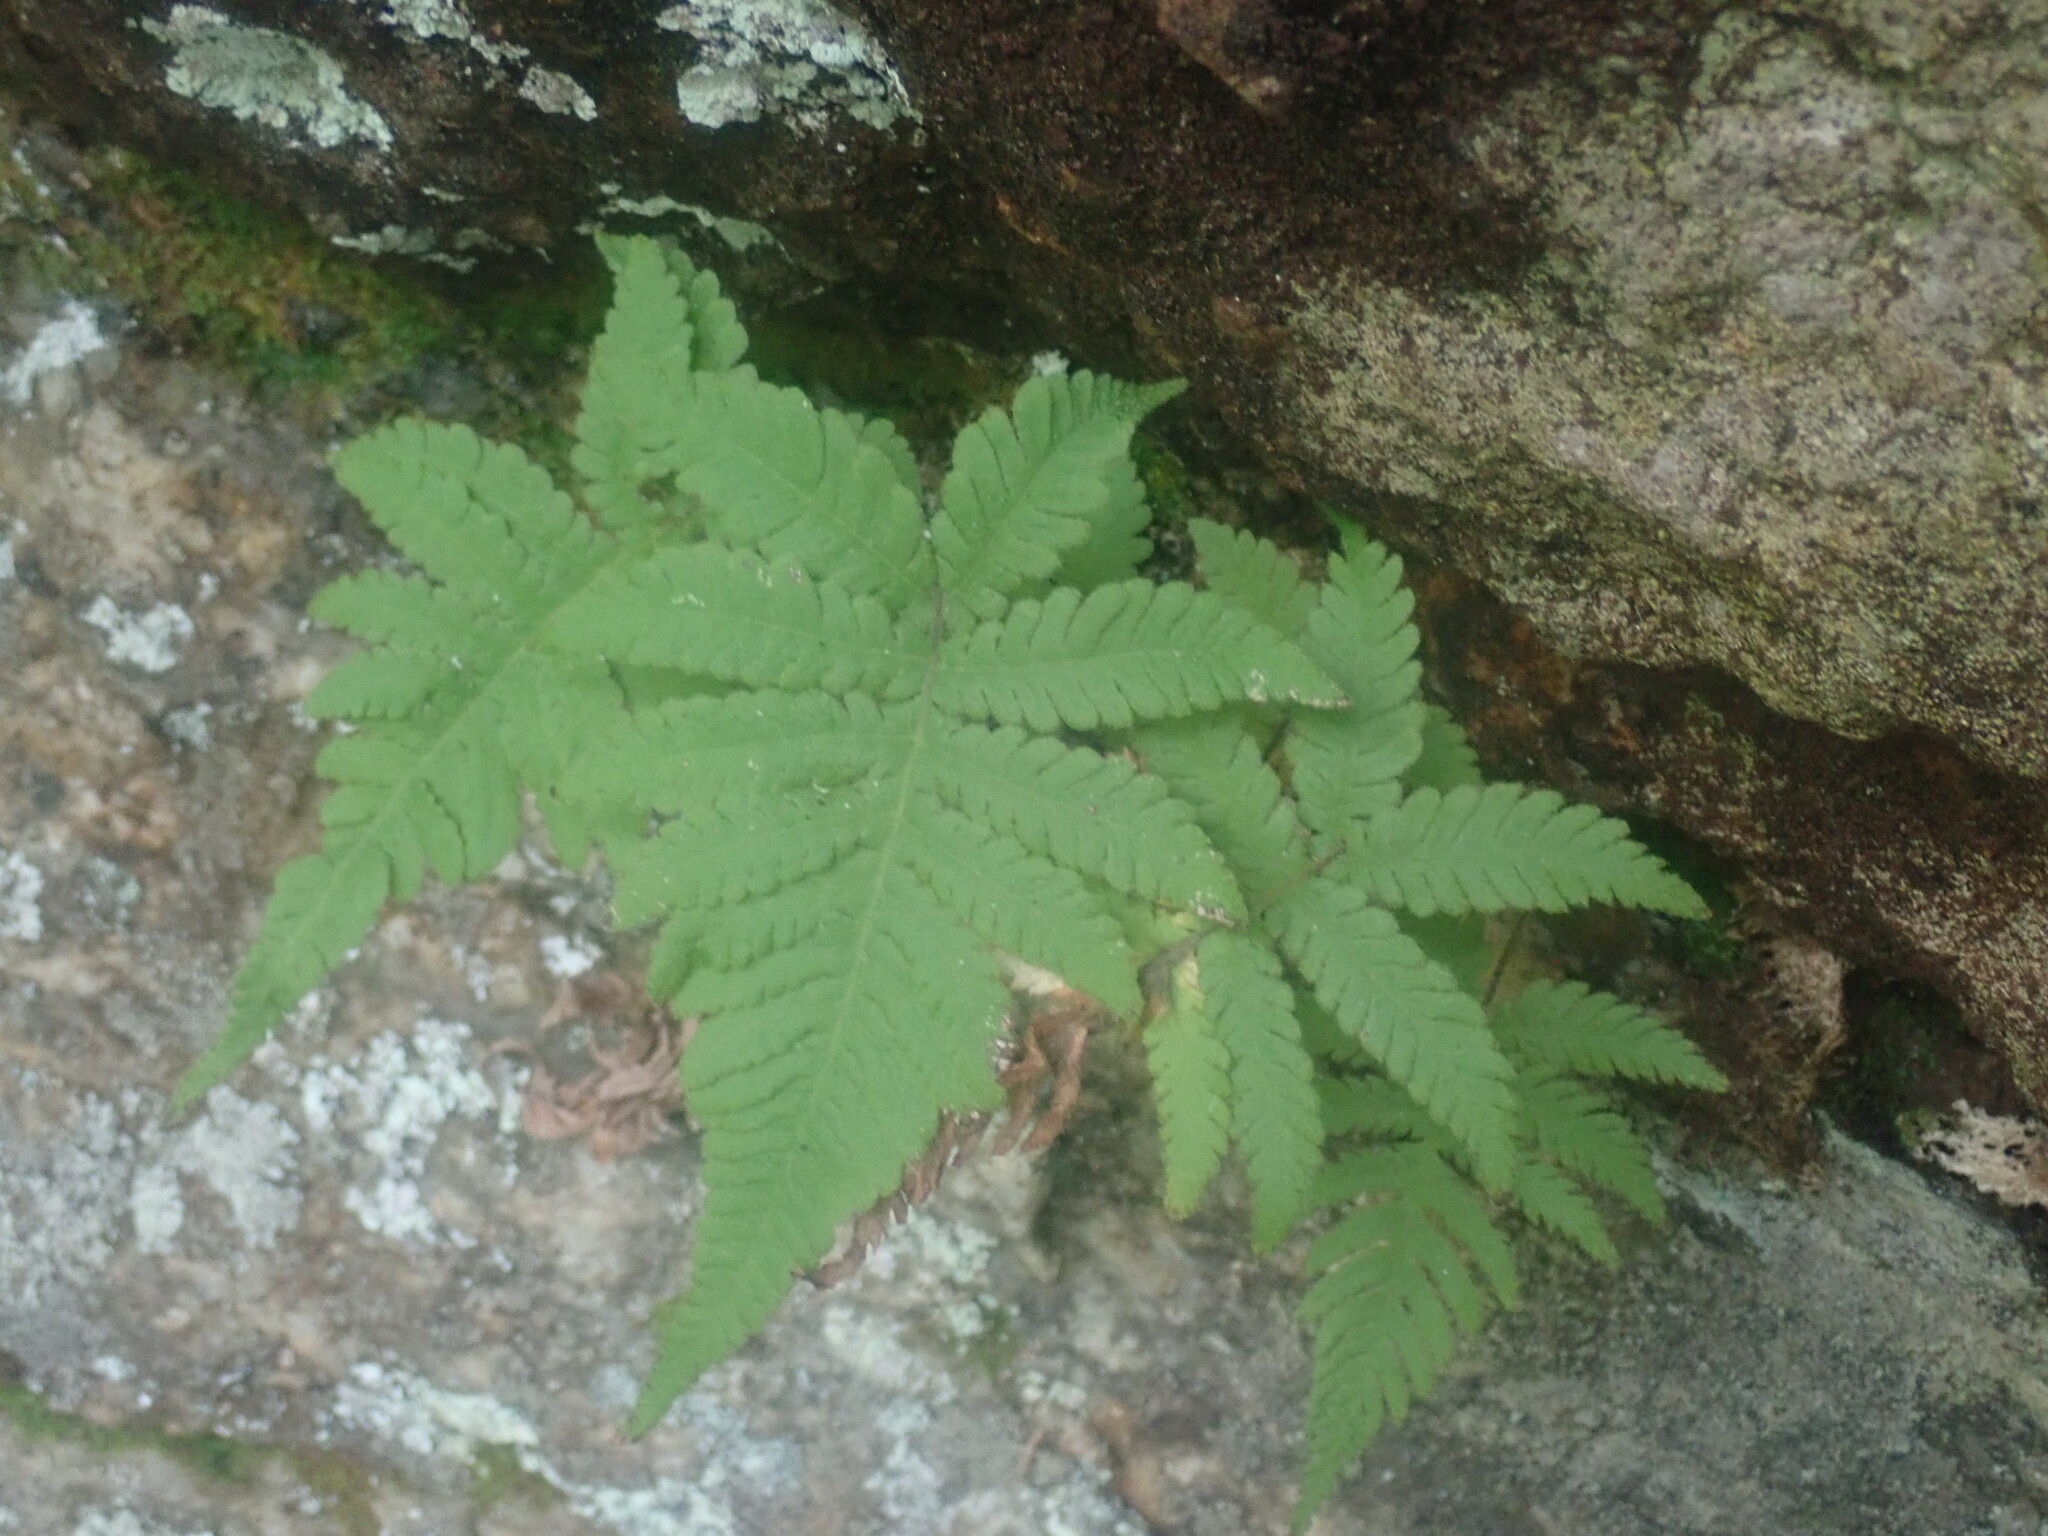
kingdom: Plantae
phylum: Tracheophyta
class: Polypodiopsida
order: Polypodiales
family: Thelypteridaceae
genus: Phegopteris
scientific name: Phegopteris connectilis
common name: Beech fern
